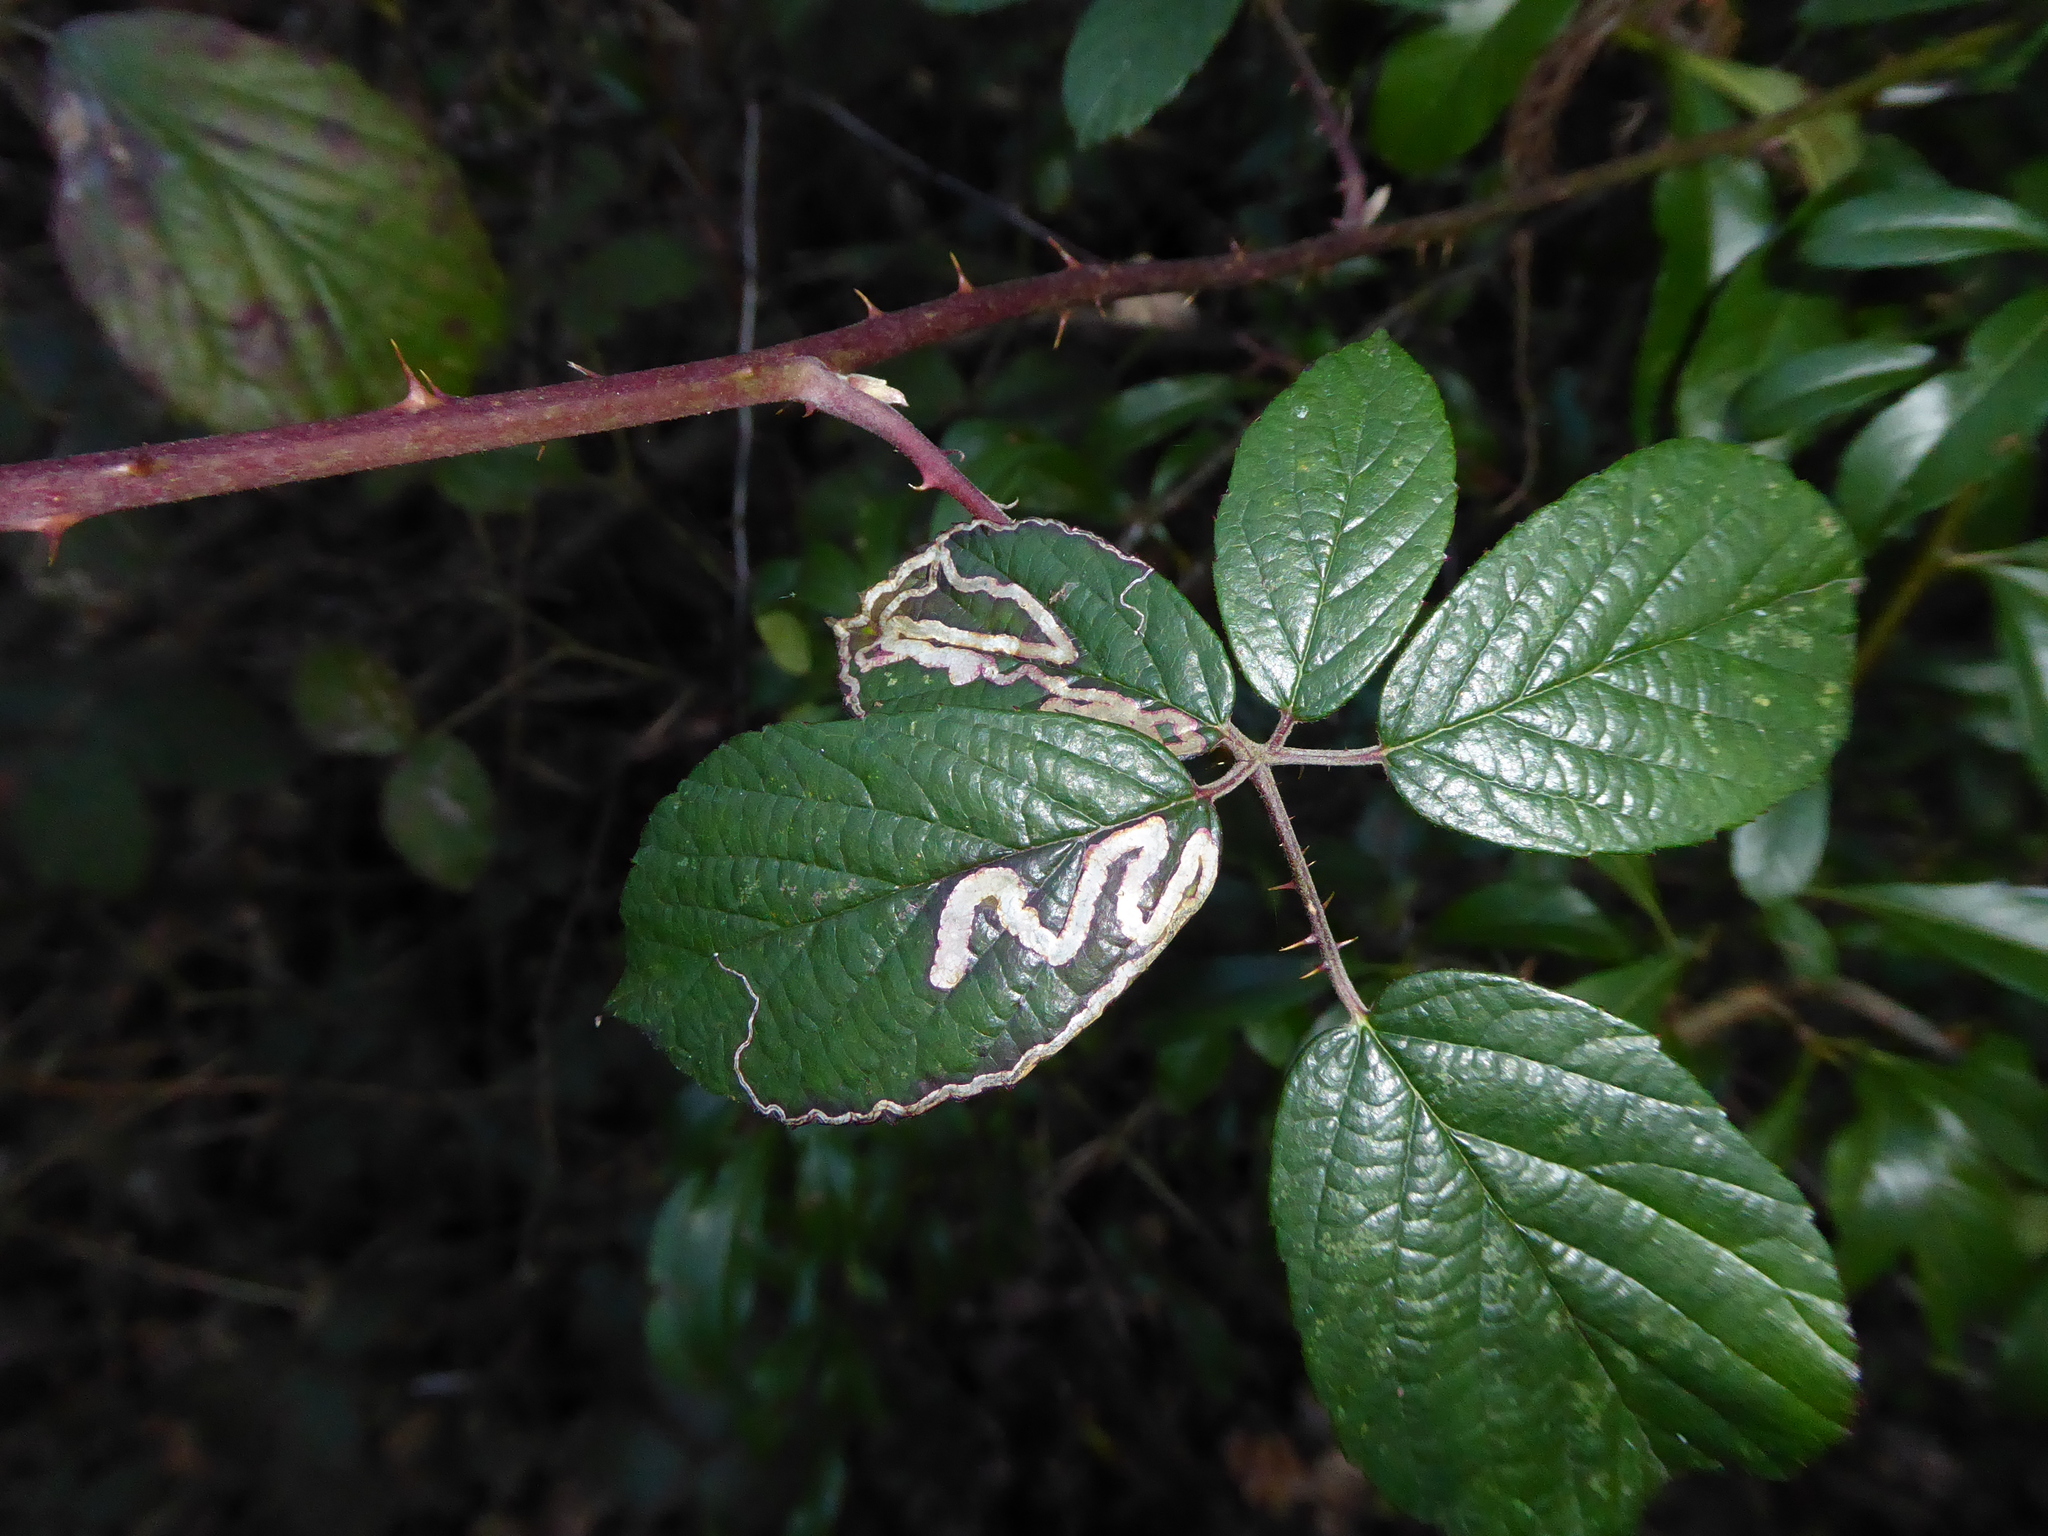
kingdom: Animalia
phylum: Arthropoda
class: Insecta
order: Lepidoptera
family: Nepticulidae
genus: Stigmella
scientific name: Stigmella aurella
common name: Golden pigmy
